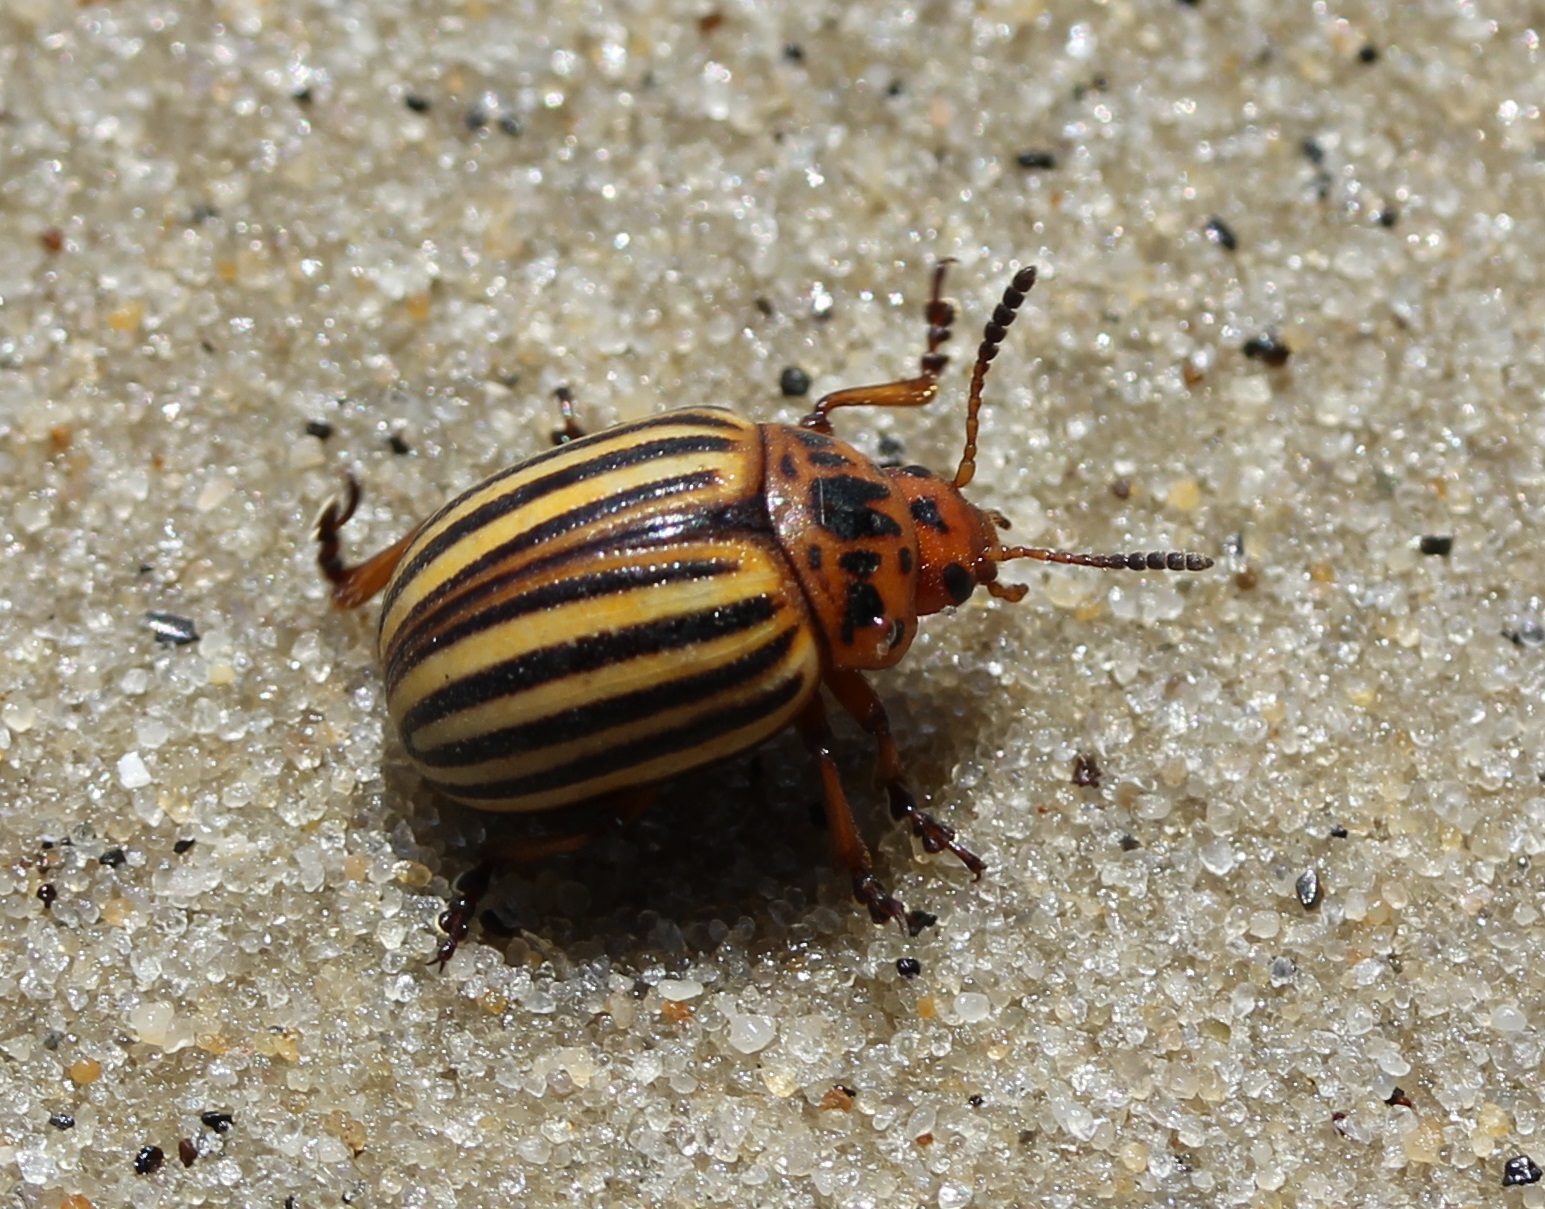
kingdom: Animalia
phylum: Arthropoda
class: Insecta
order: Coleoptera
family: Chrysomelidae
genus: Leptinotarsa
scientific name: Leptinotarsa decemlineata
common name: Colorado potato beetle
